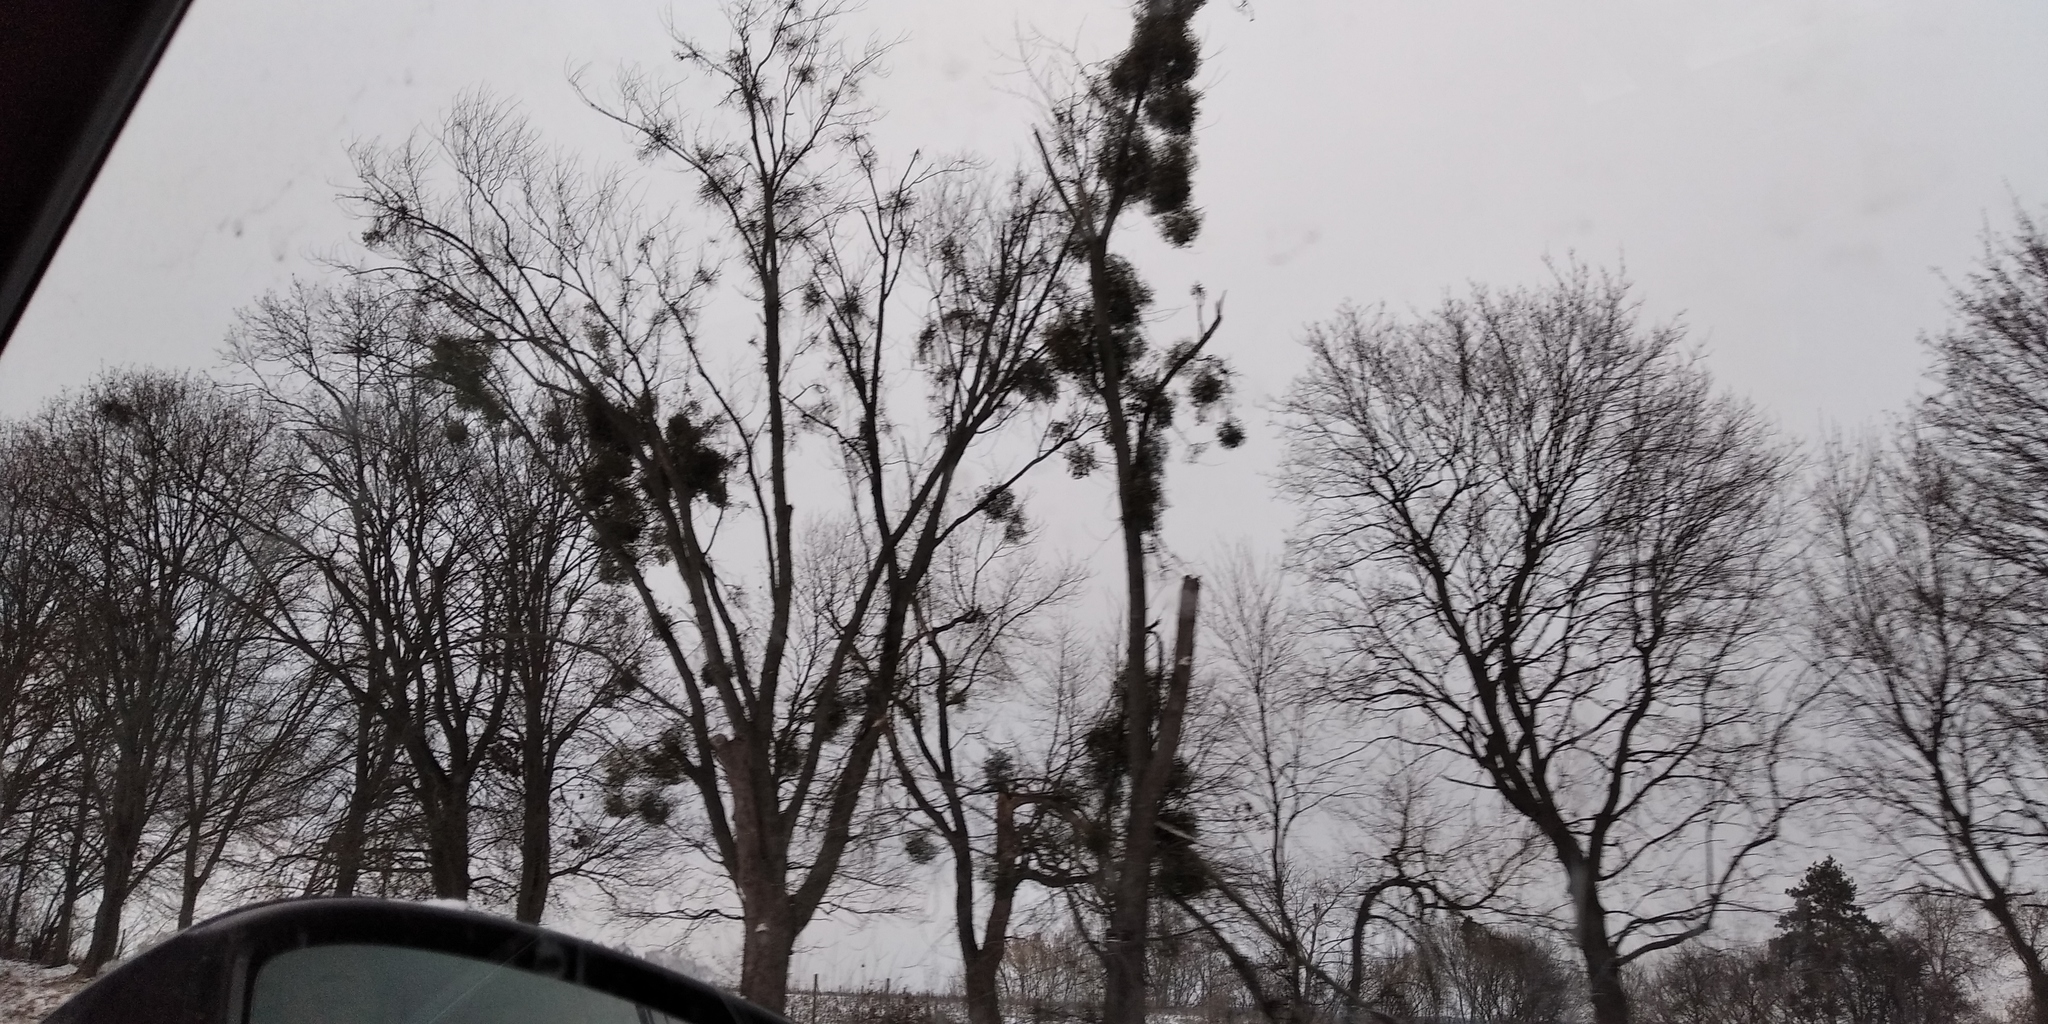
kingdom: Plantae
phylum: Tracheophyta
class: Magnoliopsida
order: Santalales
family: Viscaceae
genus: Viscum
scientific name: Viscum album
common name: Mistletoe
